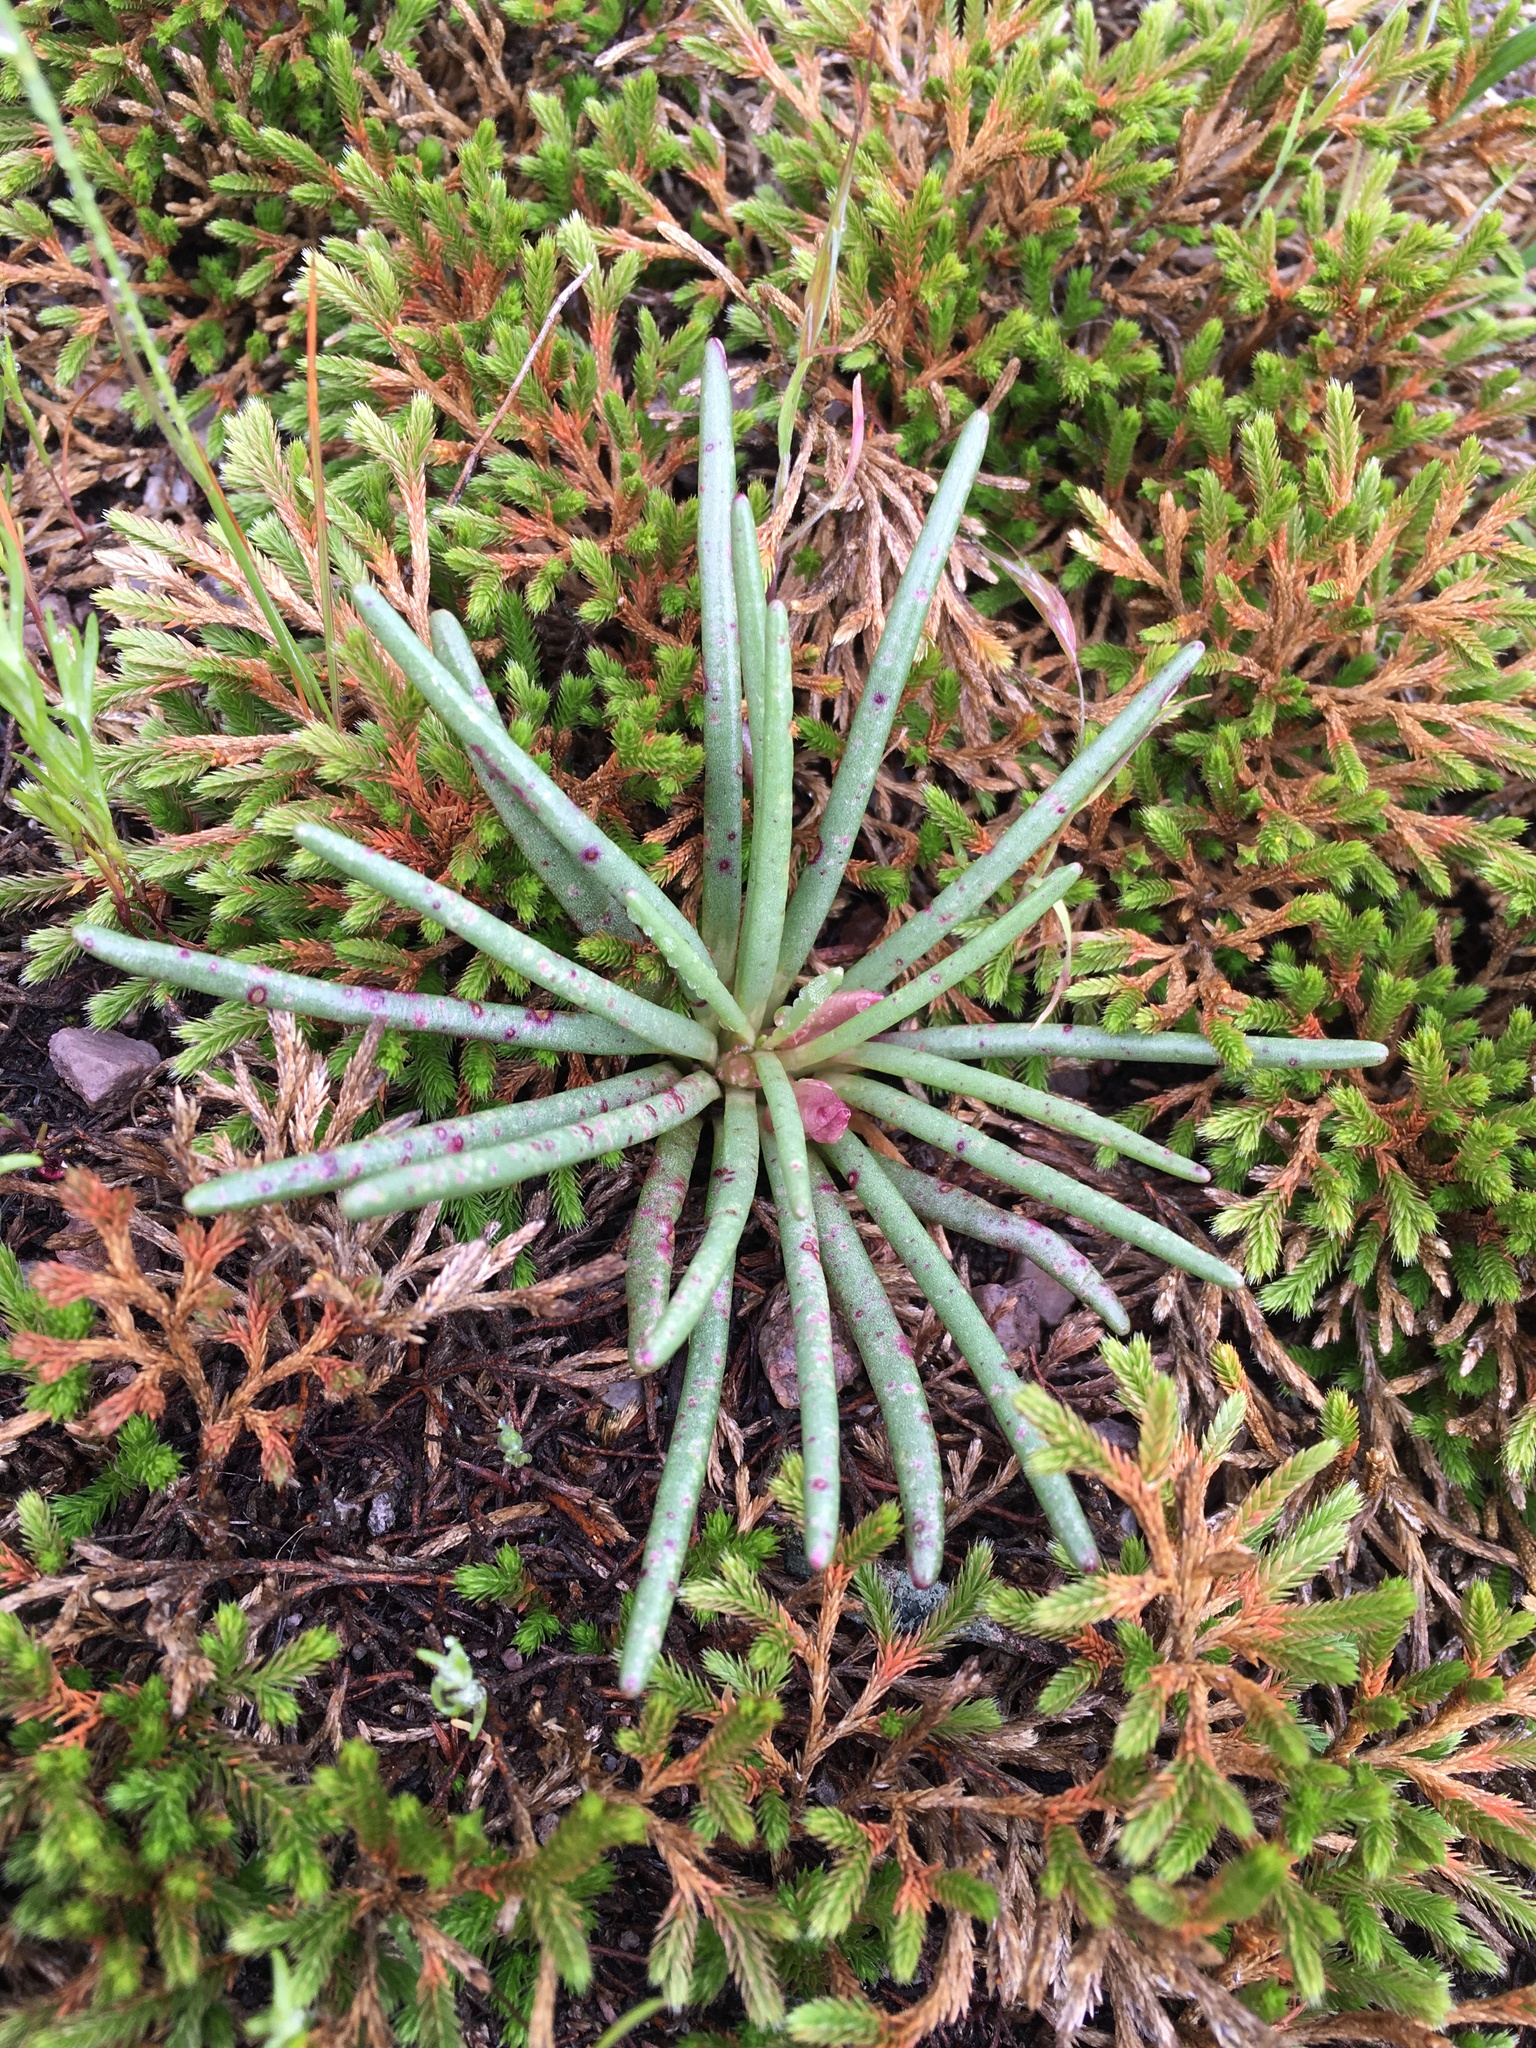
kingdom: Plantae
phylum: Tracheophyta
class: Magnoliopsida
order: Caryophyllales
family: Montiaceae
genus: Lewisia
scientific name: Lewisia rediviva
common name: Bitter-root
